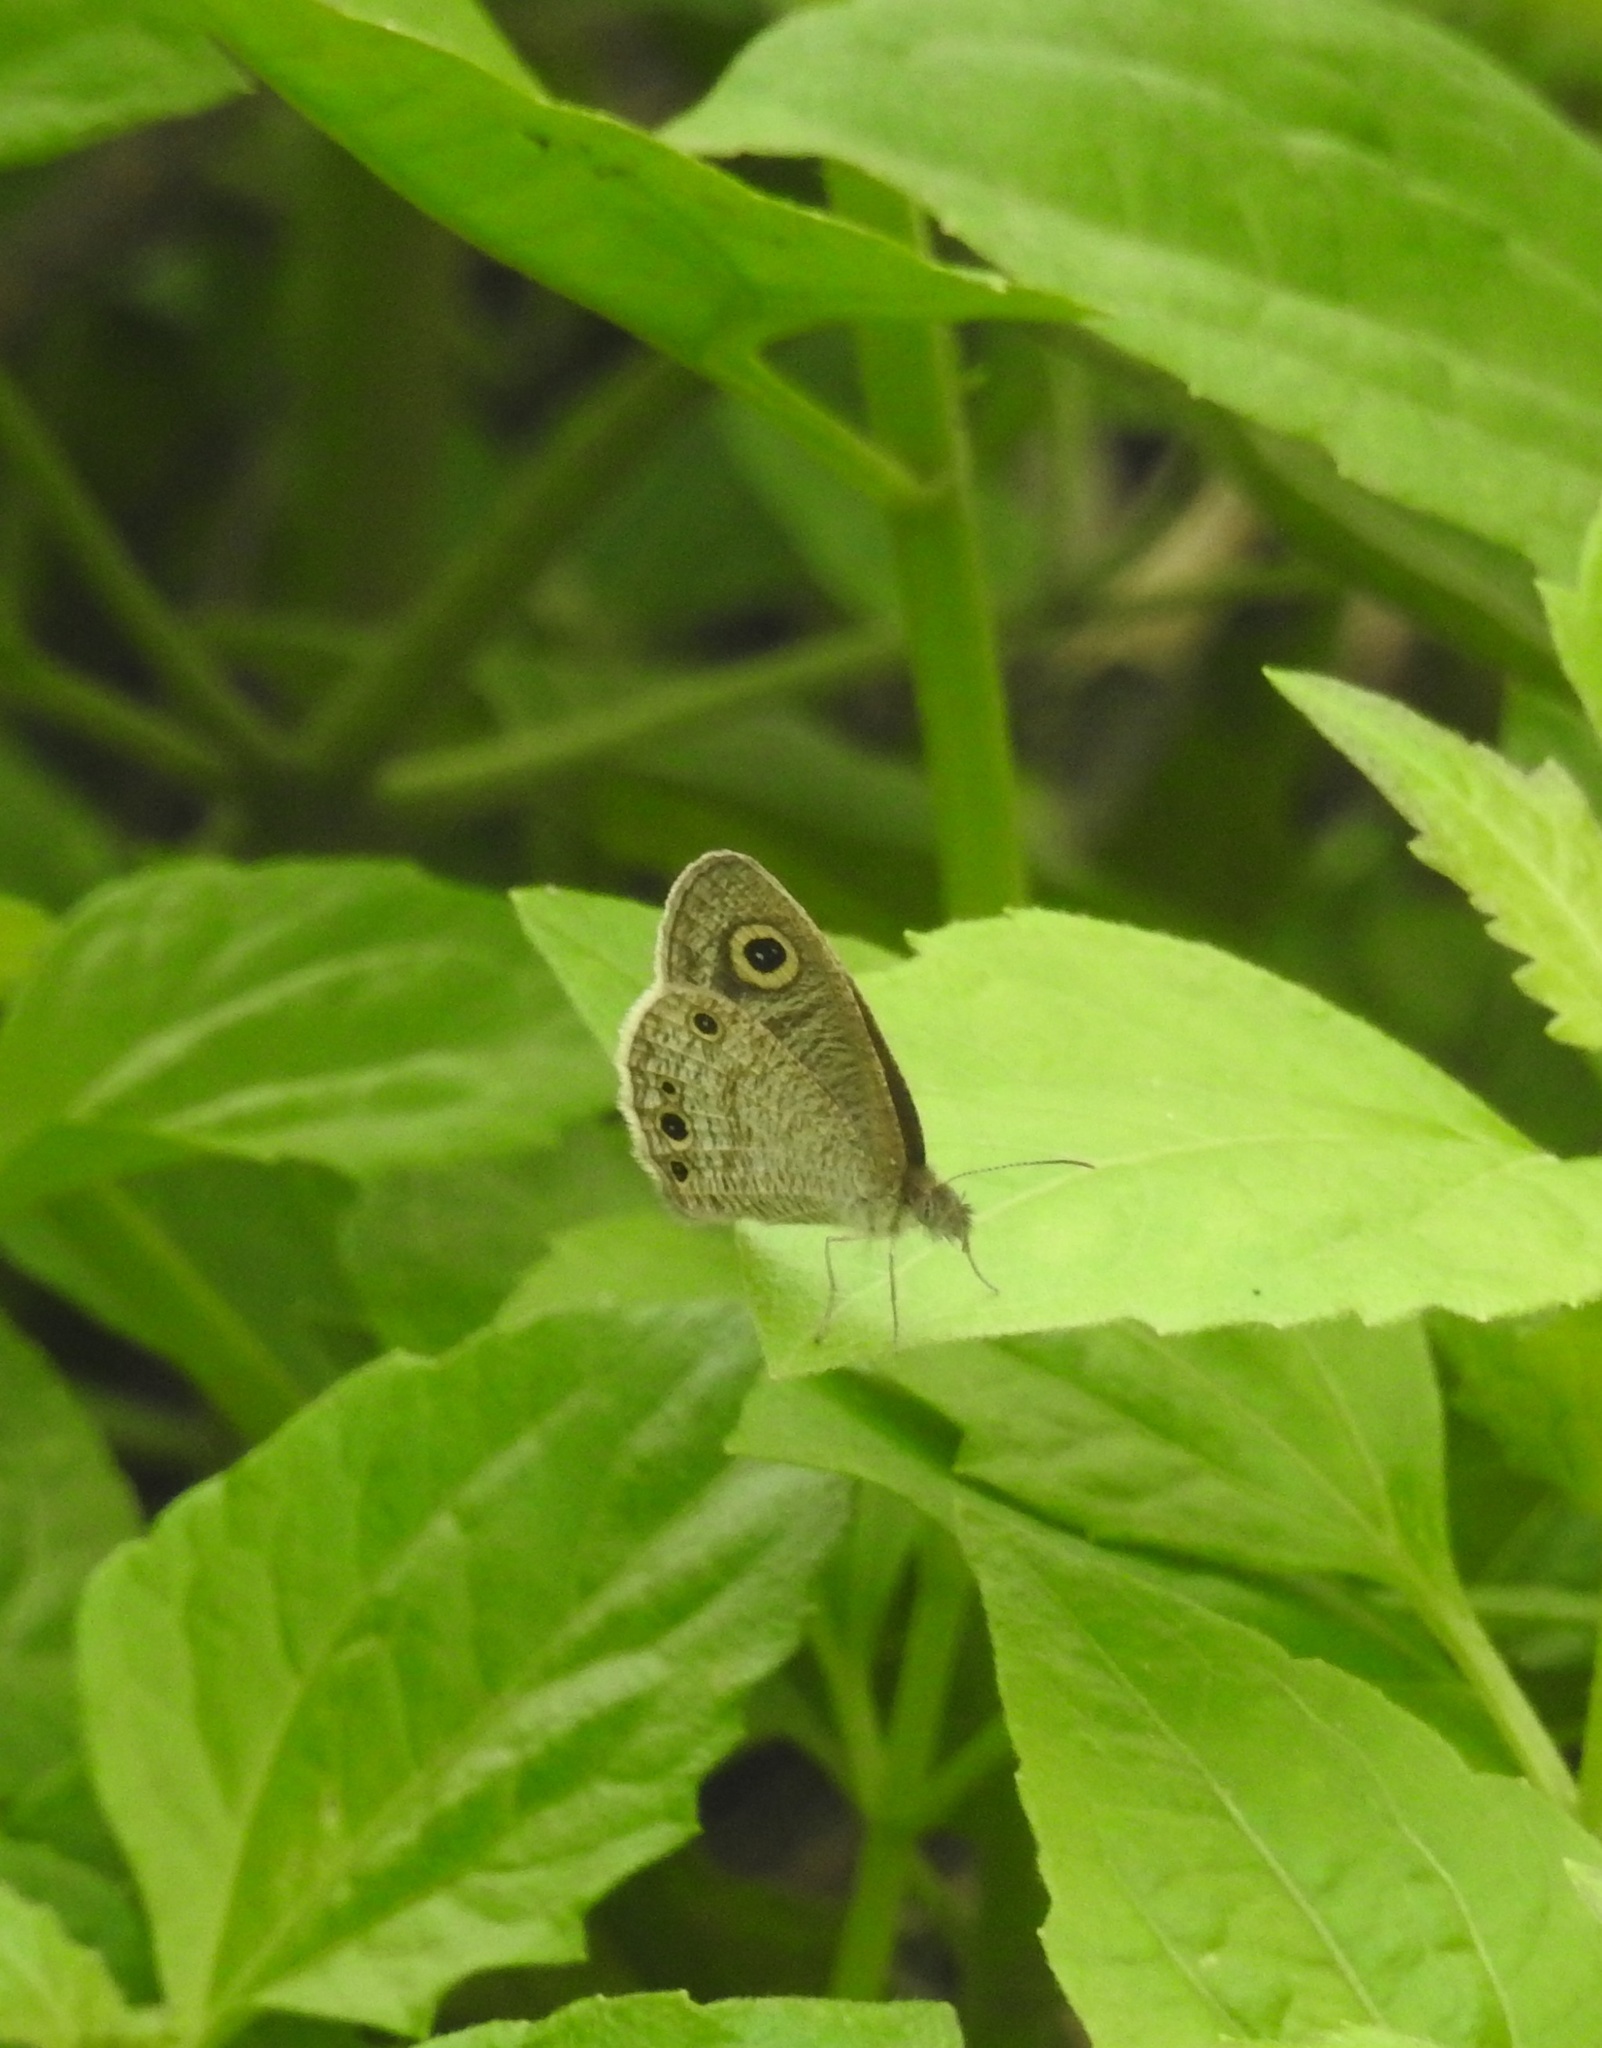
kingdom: Animalia
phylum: Arthropoda
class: Insecta
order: Lepidoptera
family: Nymphalidae
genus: Ypthima
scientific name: Ypthima huebneri
